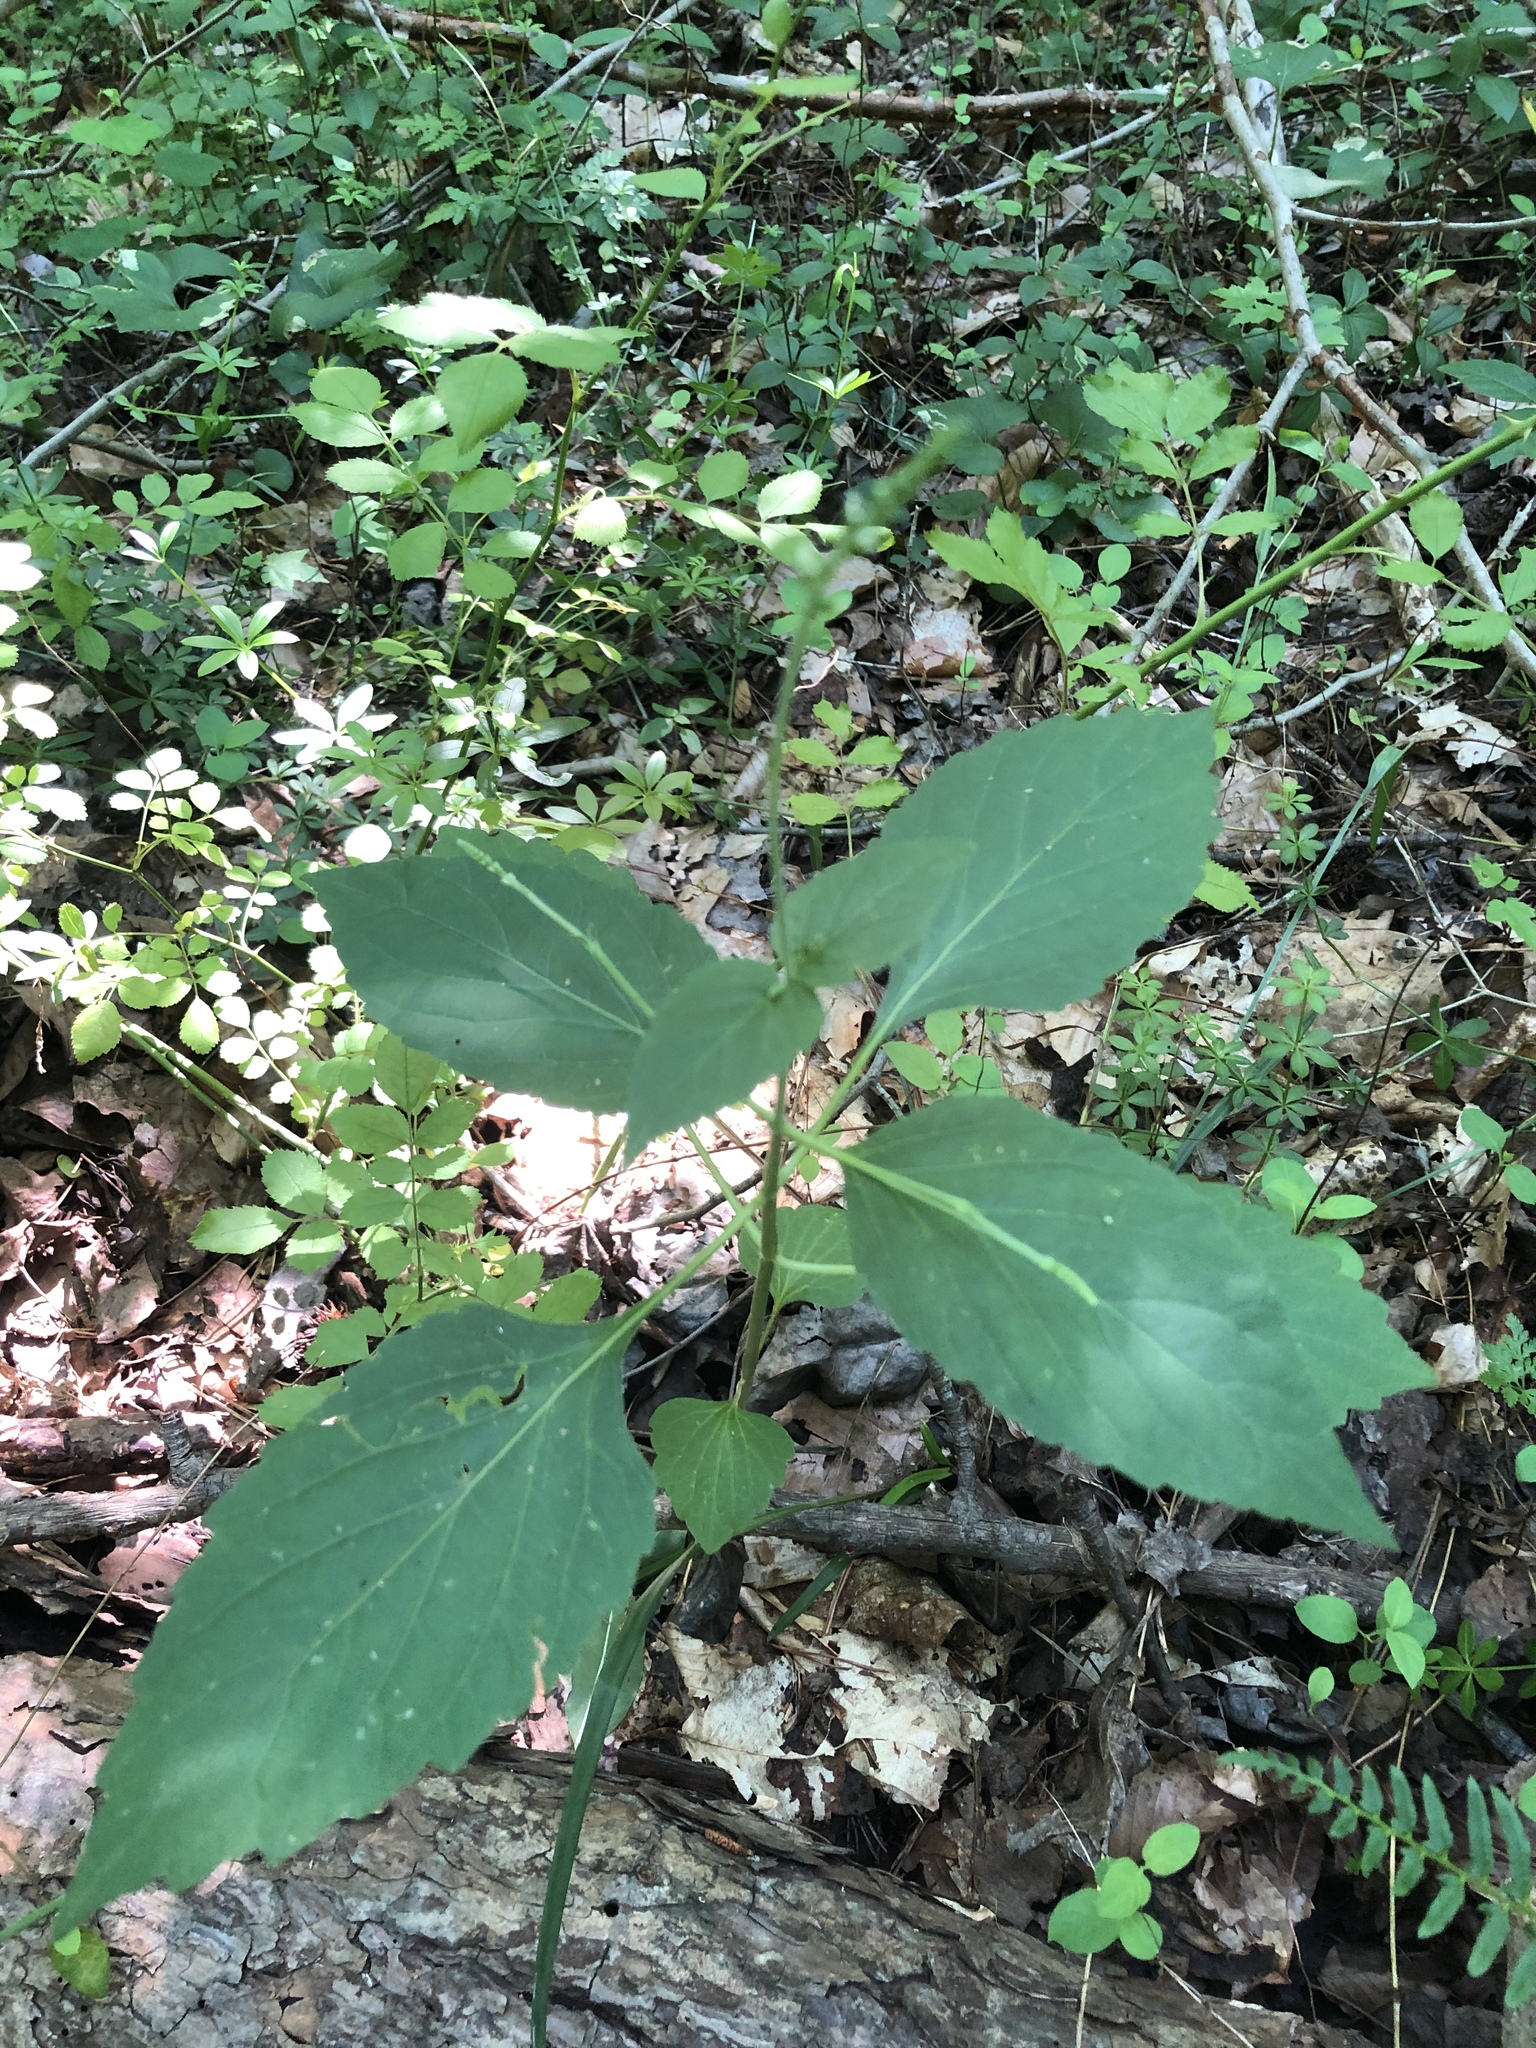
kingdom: Plantae
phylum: Tracheophyta
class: Magnoliopsida
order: Lamiales
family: Phrymaceae
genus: Phryma
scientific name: Phryma leptostachya
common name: American lopseed
